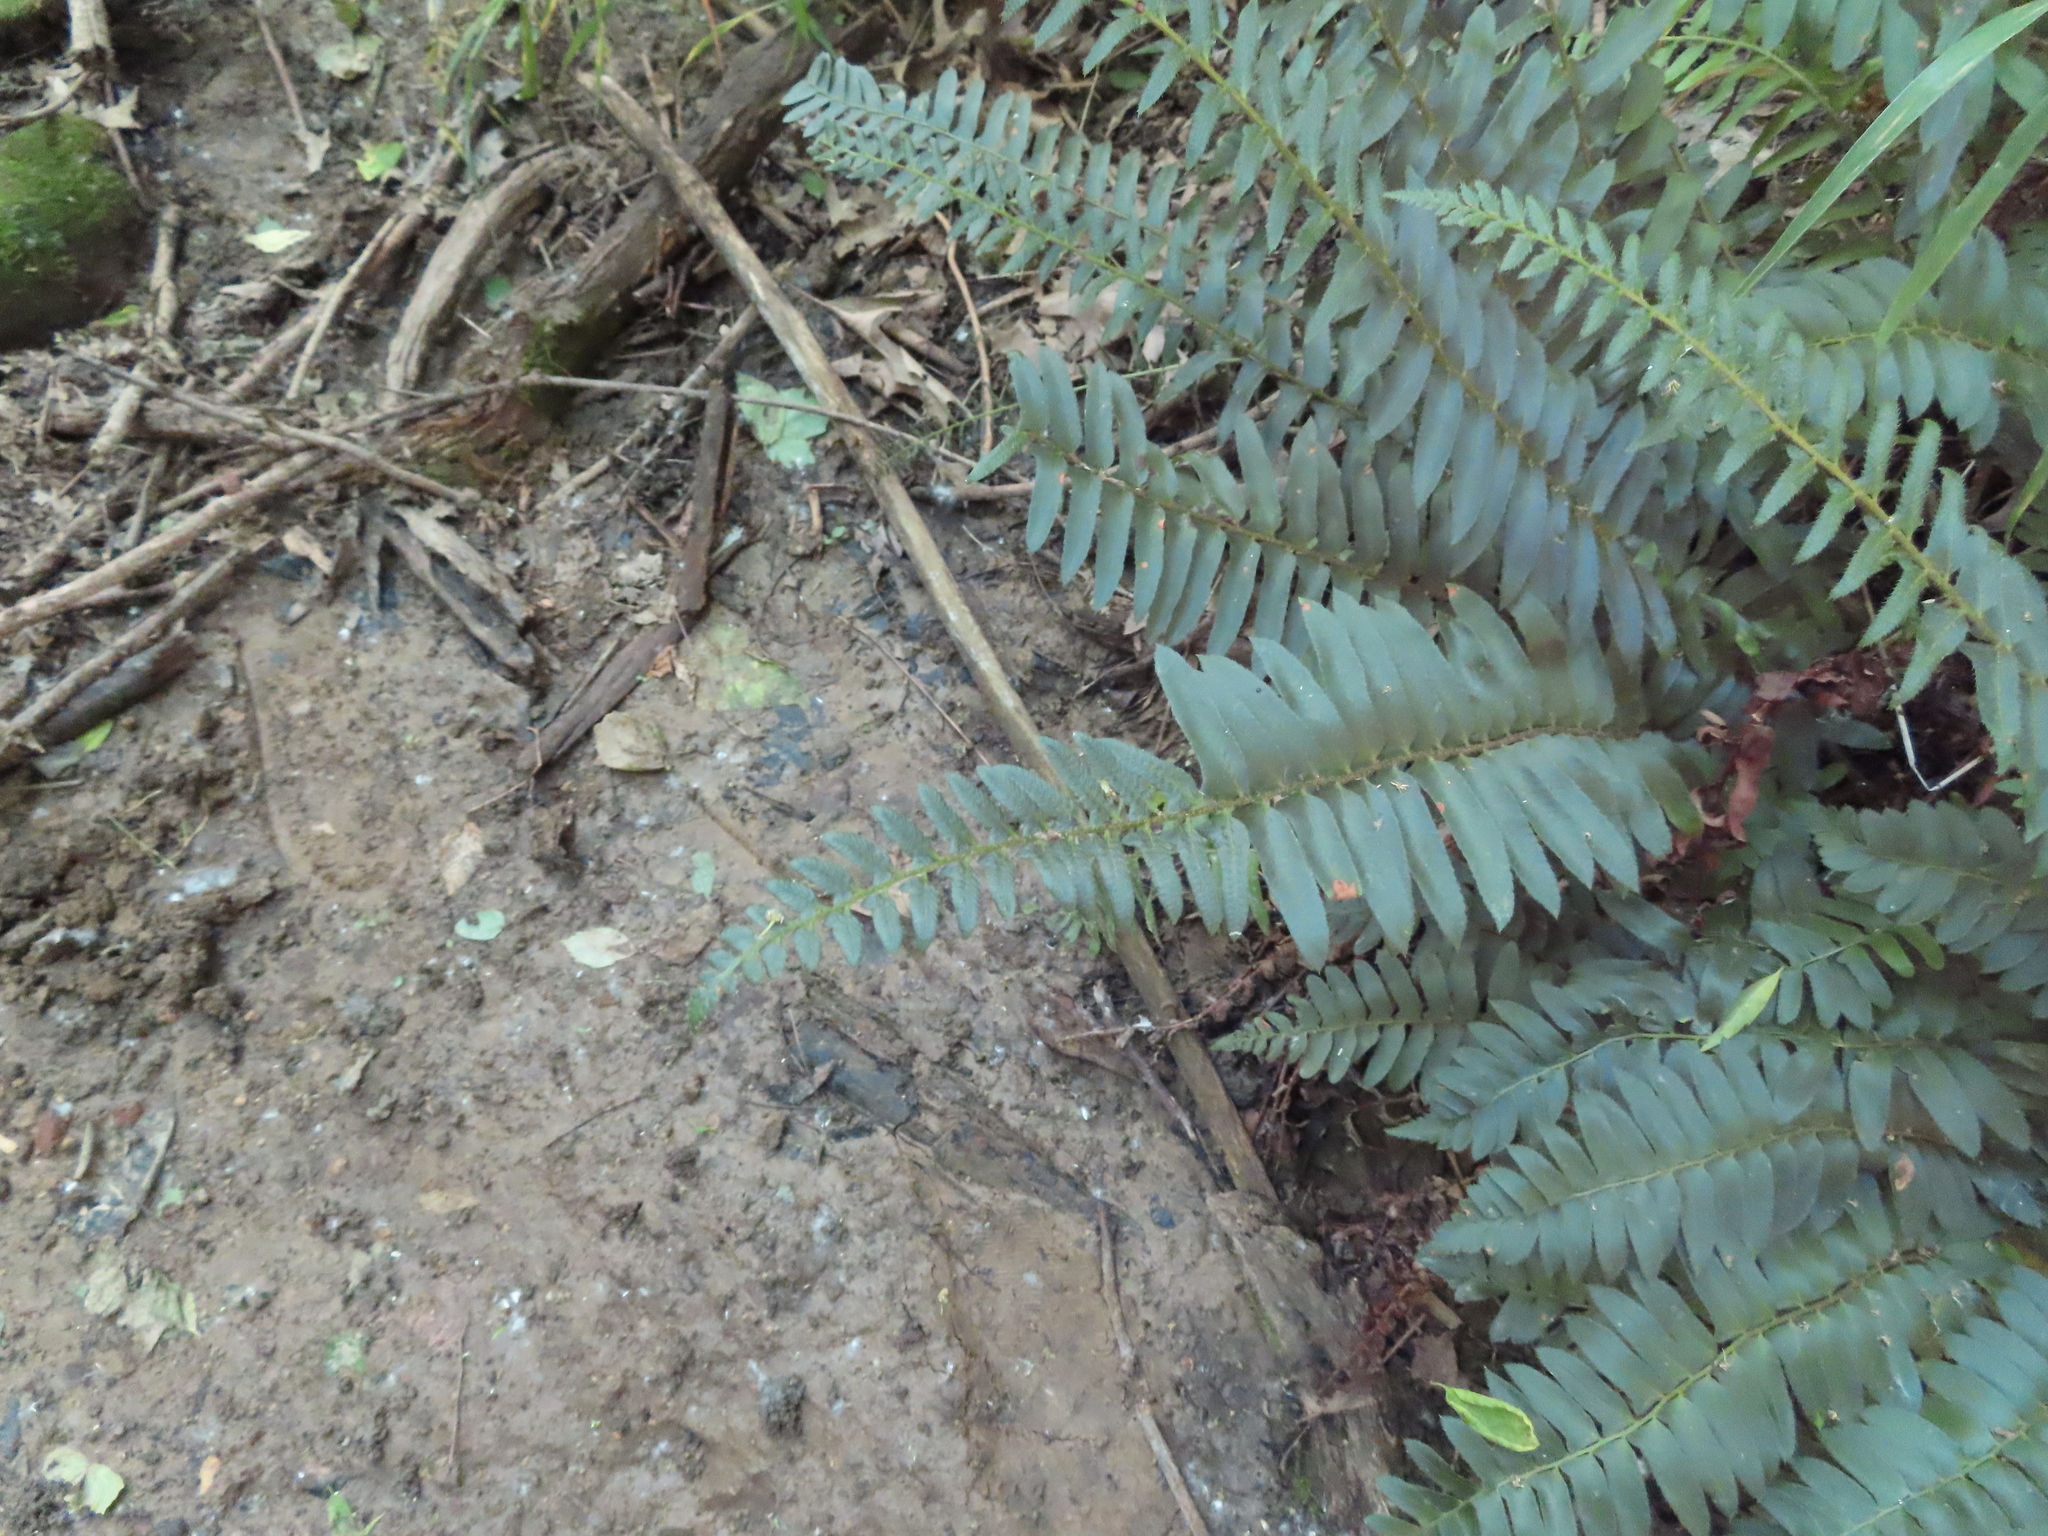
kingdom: Plantae
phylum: Tracheophyta
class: Polypodiopsida
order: Polypodiales
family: Dryopteridaceae
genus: Polystichum
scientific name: Polystichum acrostichoides
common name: Christmas fern
